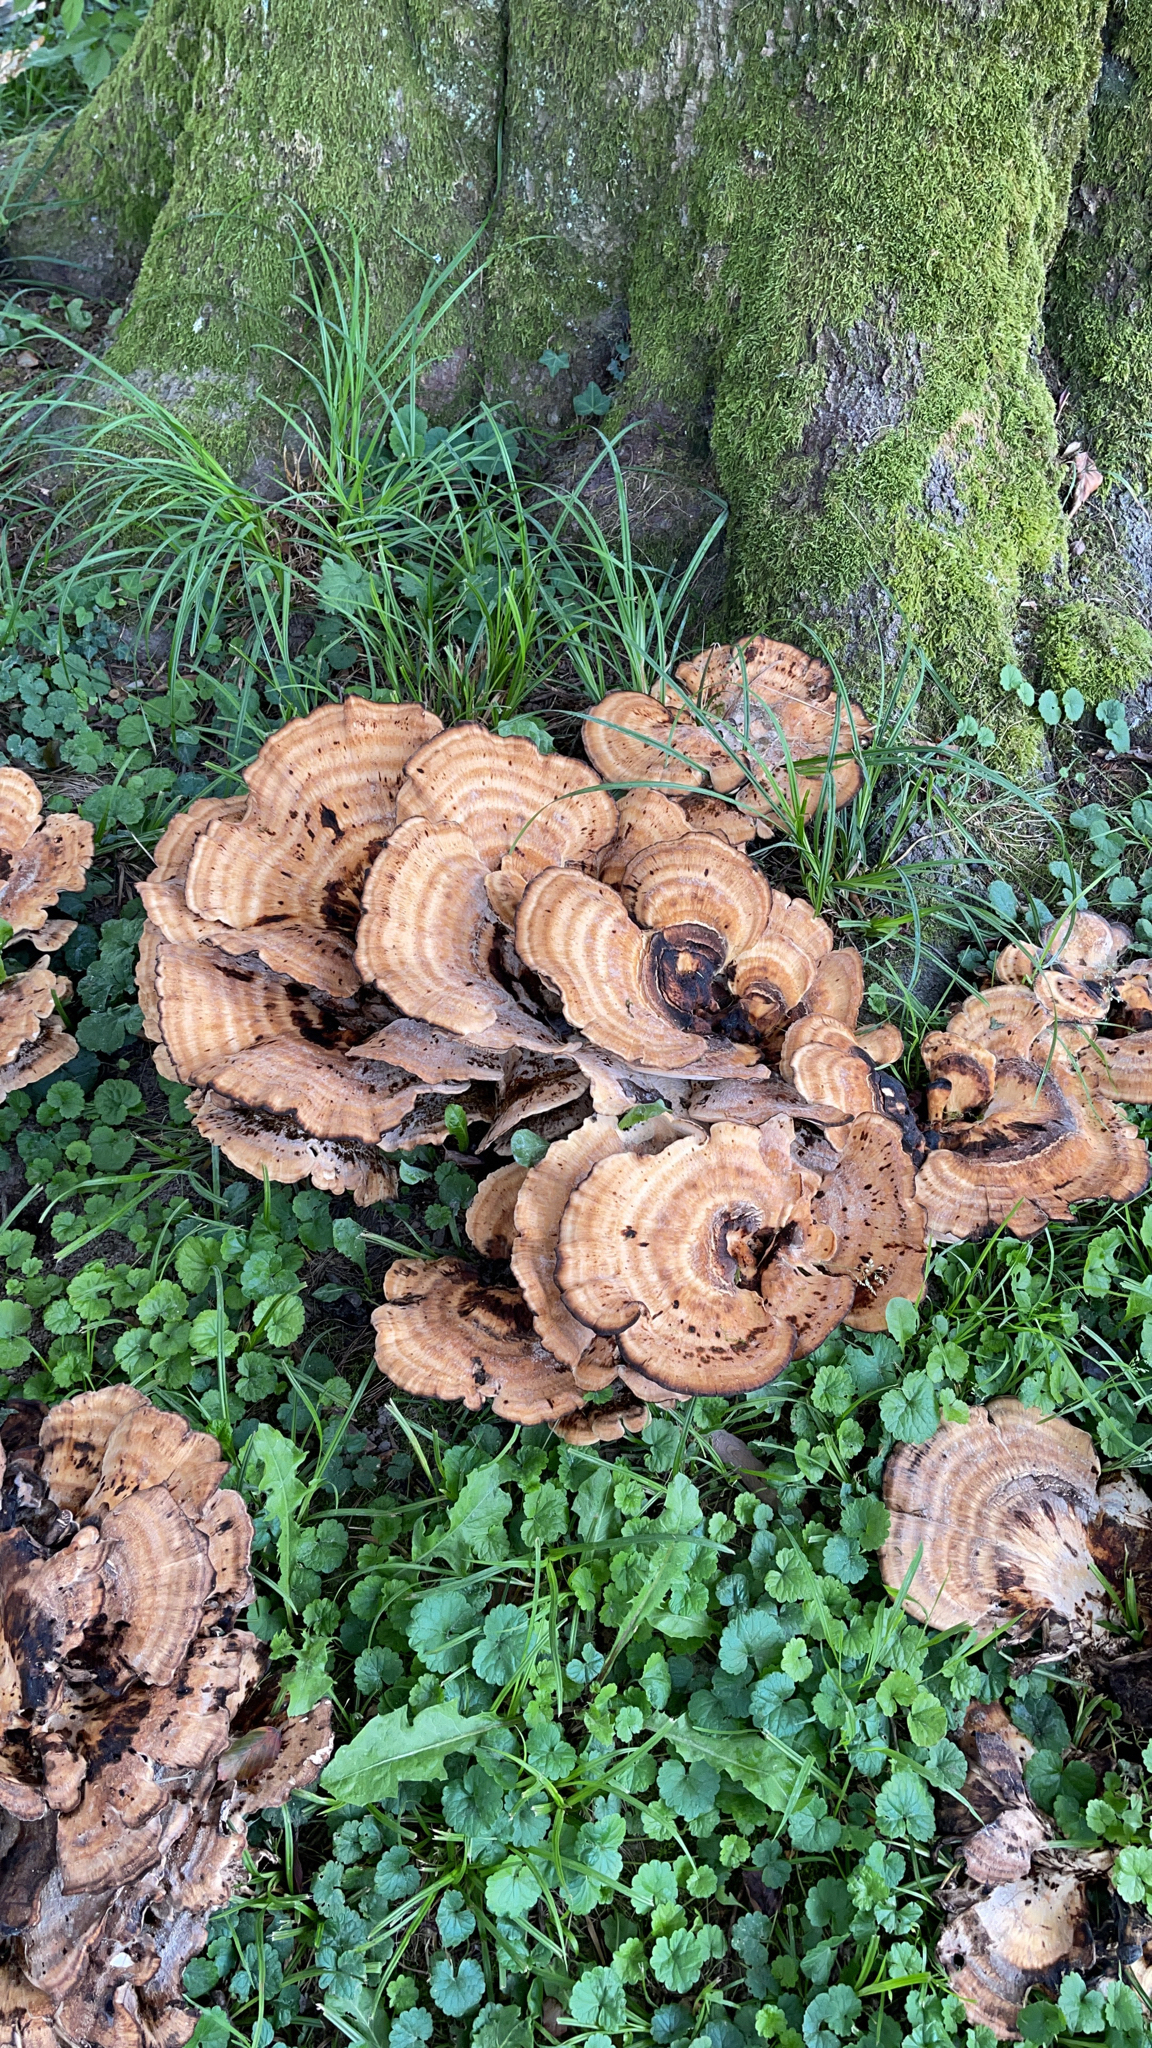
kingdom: Fungi
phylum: Basidiomycota
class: Agaricomycetes
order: Polyporales
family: Meripilaceae
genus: Meripilus
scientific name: Meripilus giganteus
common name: Giant polypore
